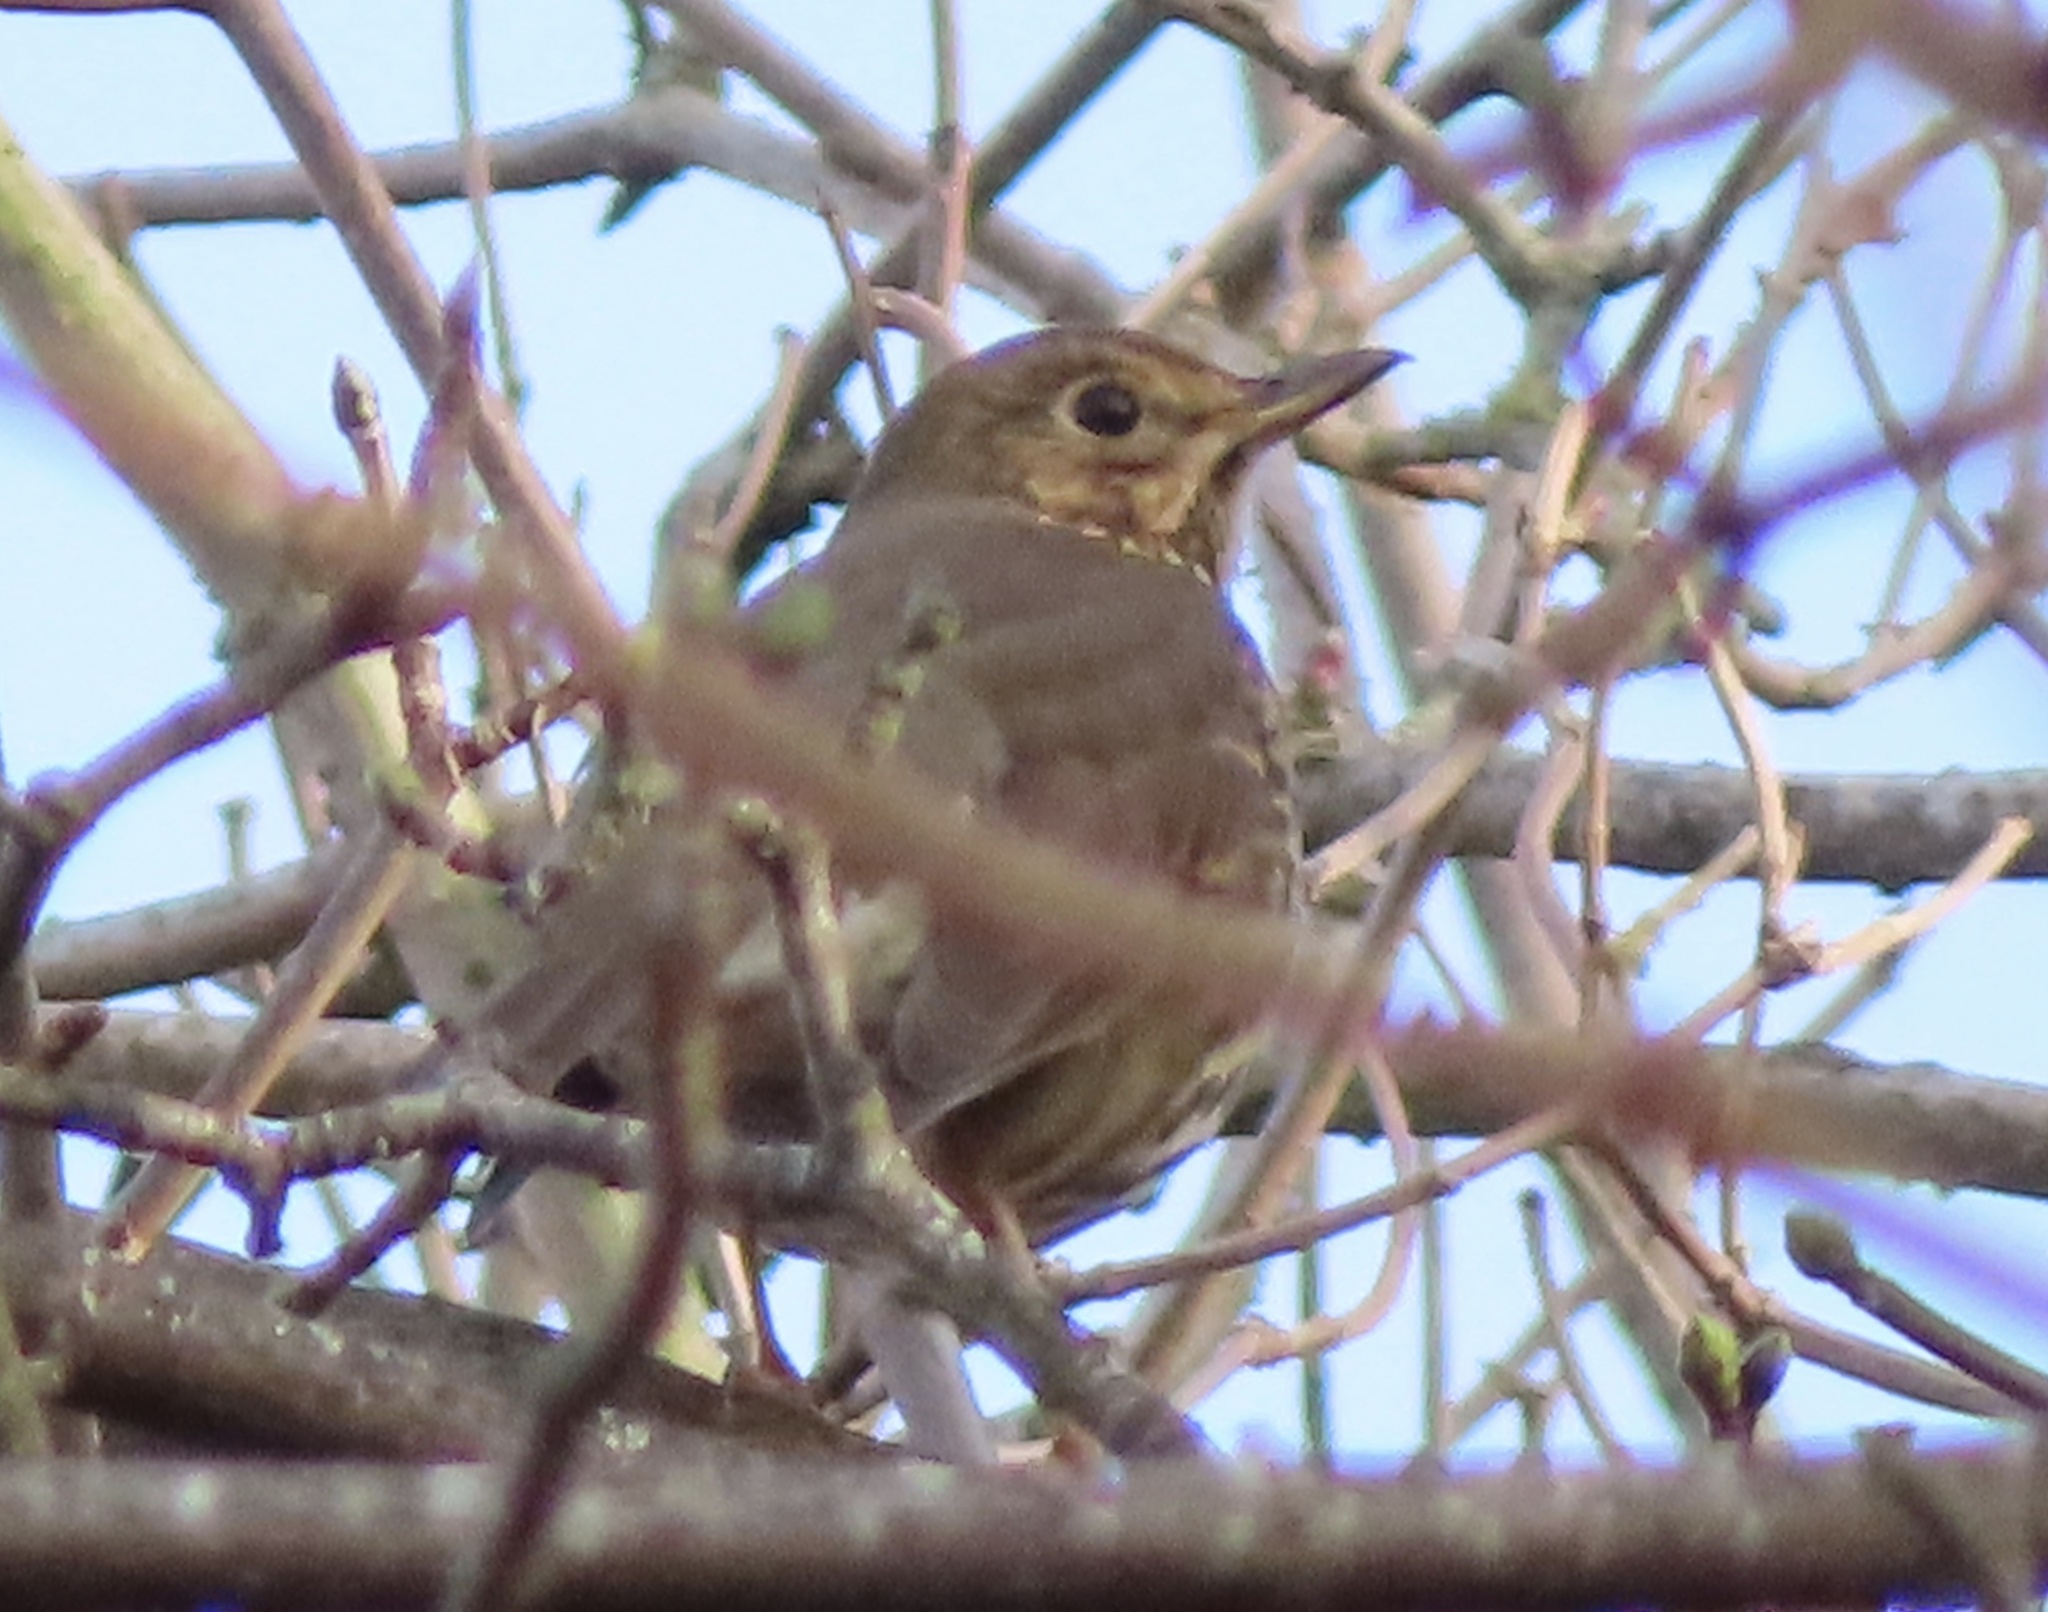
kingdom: Animalia
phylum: Chordata
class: Aves
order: Passeriformes
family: Turdidae
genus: Turdus
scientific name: Turdus philomelos
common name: Song thrush
